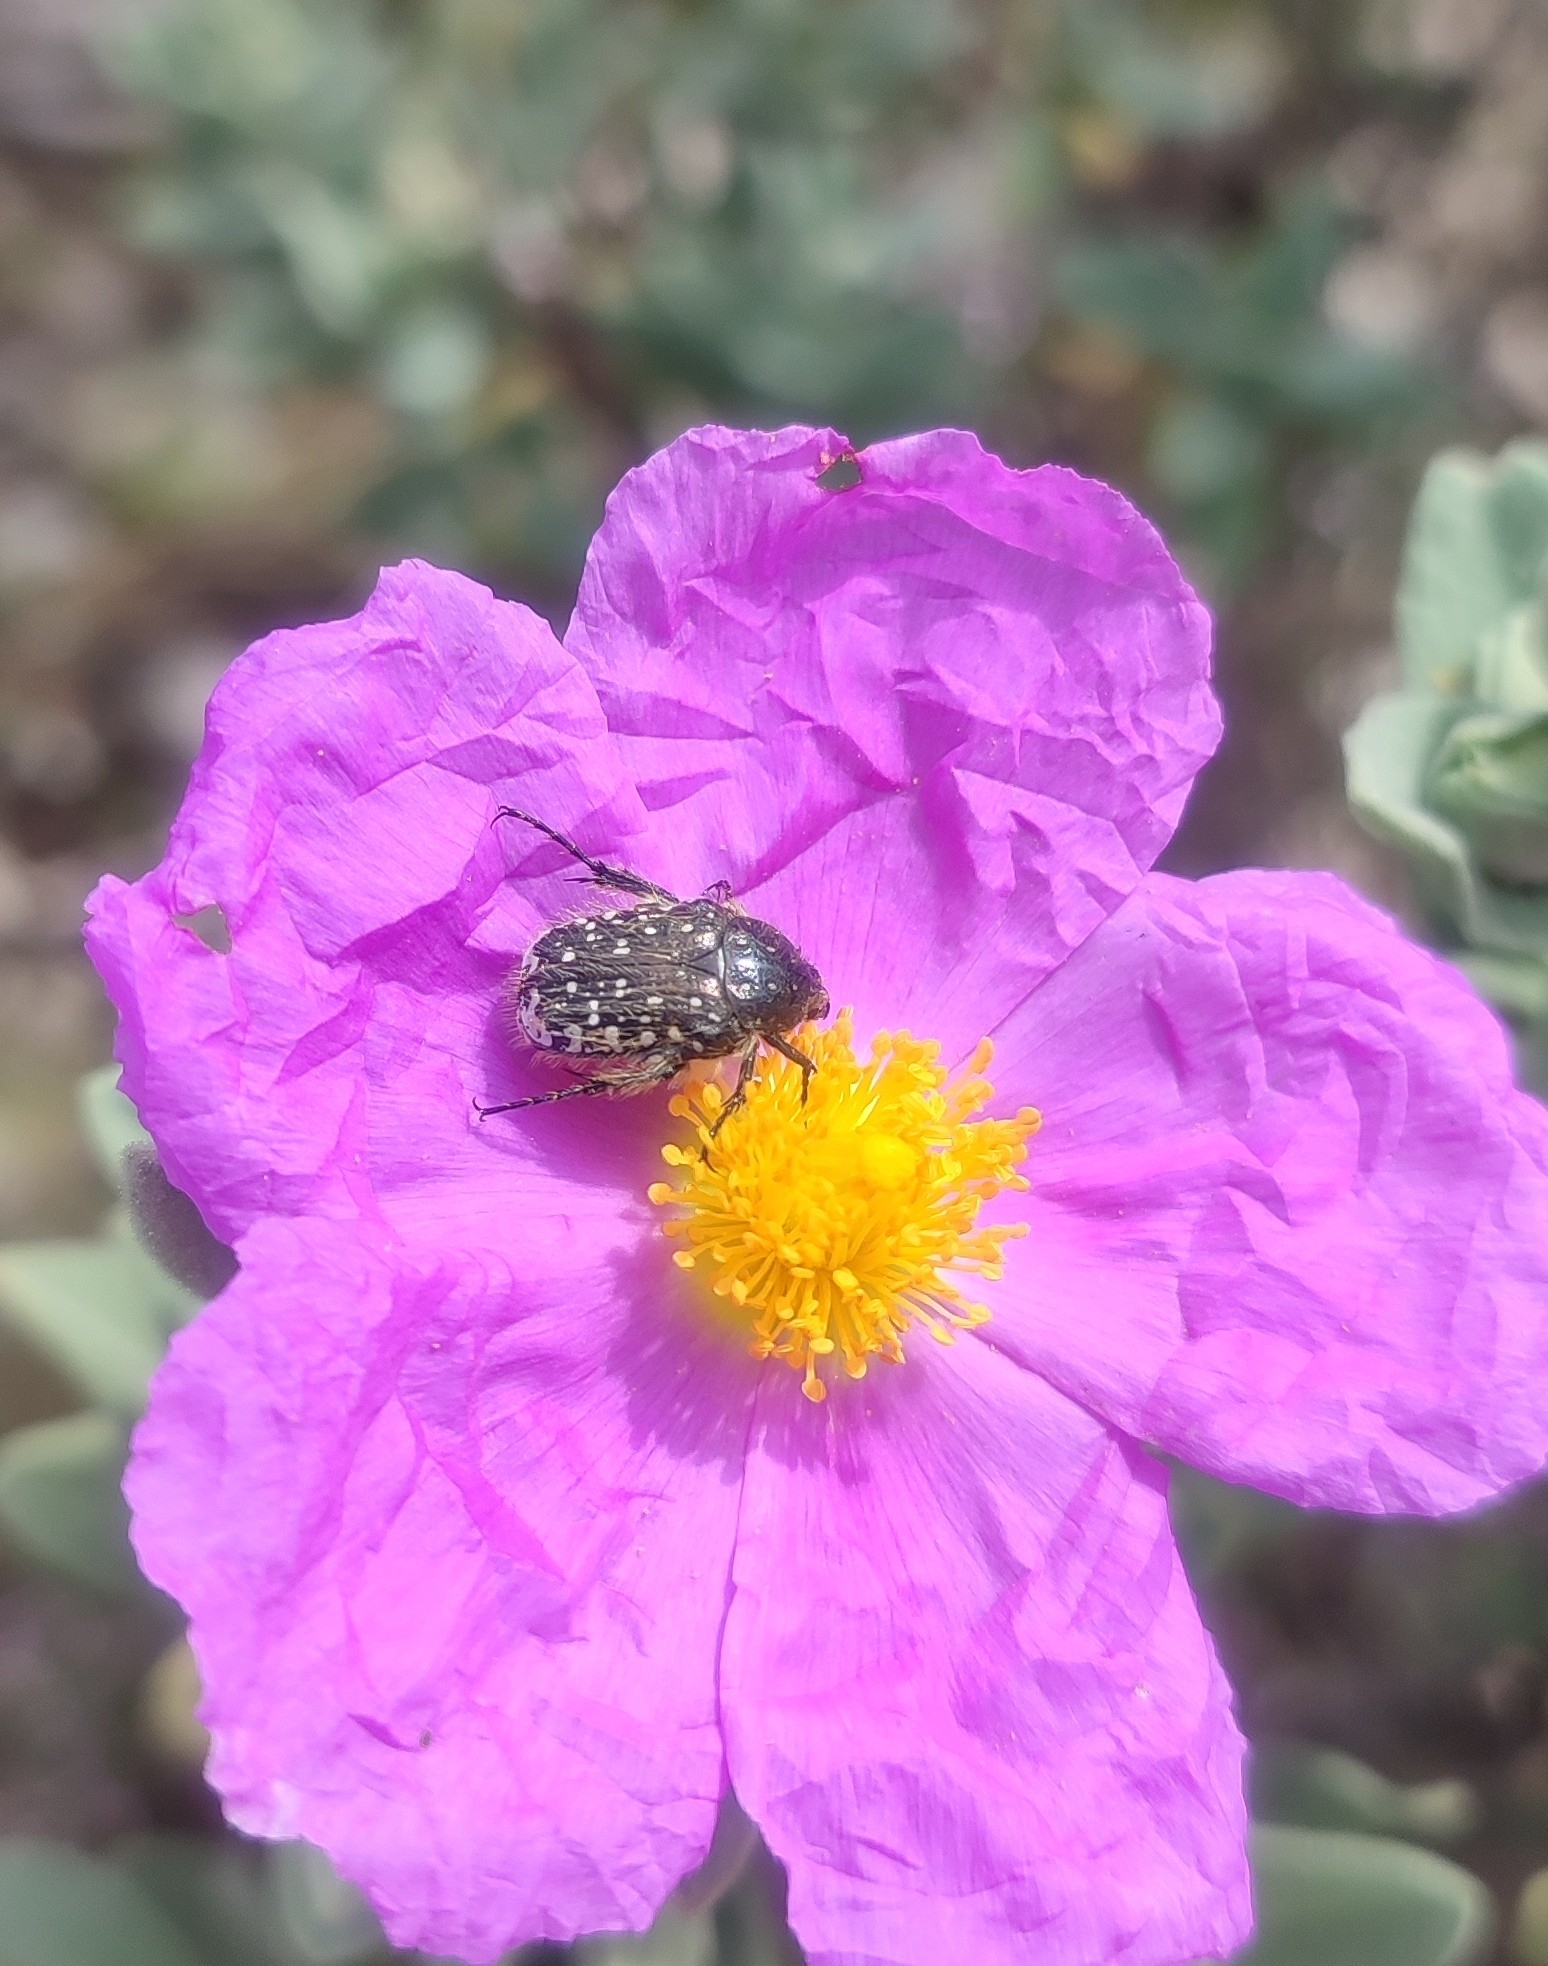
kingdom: Animalia
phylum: Arthropoda
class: Insecta
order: Coleoptera
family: Scarabaeidae
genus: Oxythyrea
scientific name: Oxythyrea funesta
